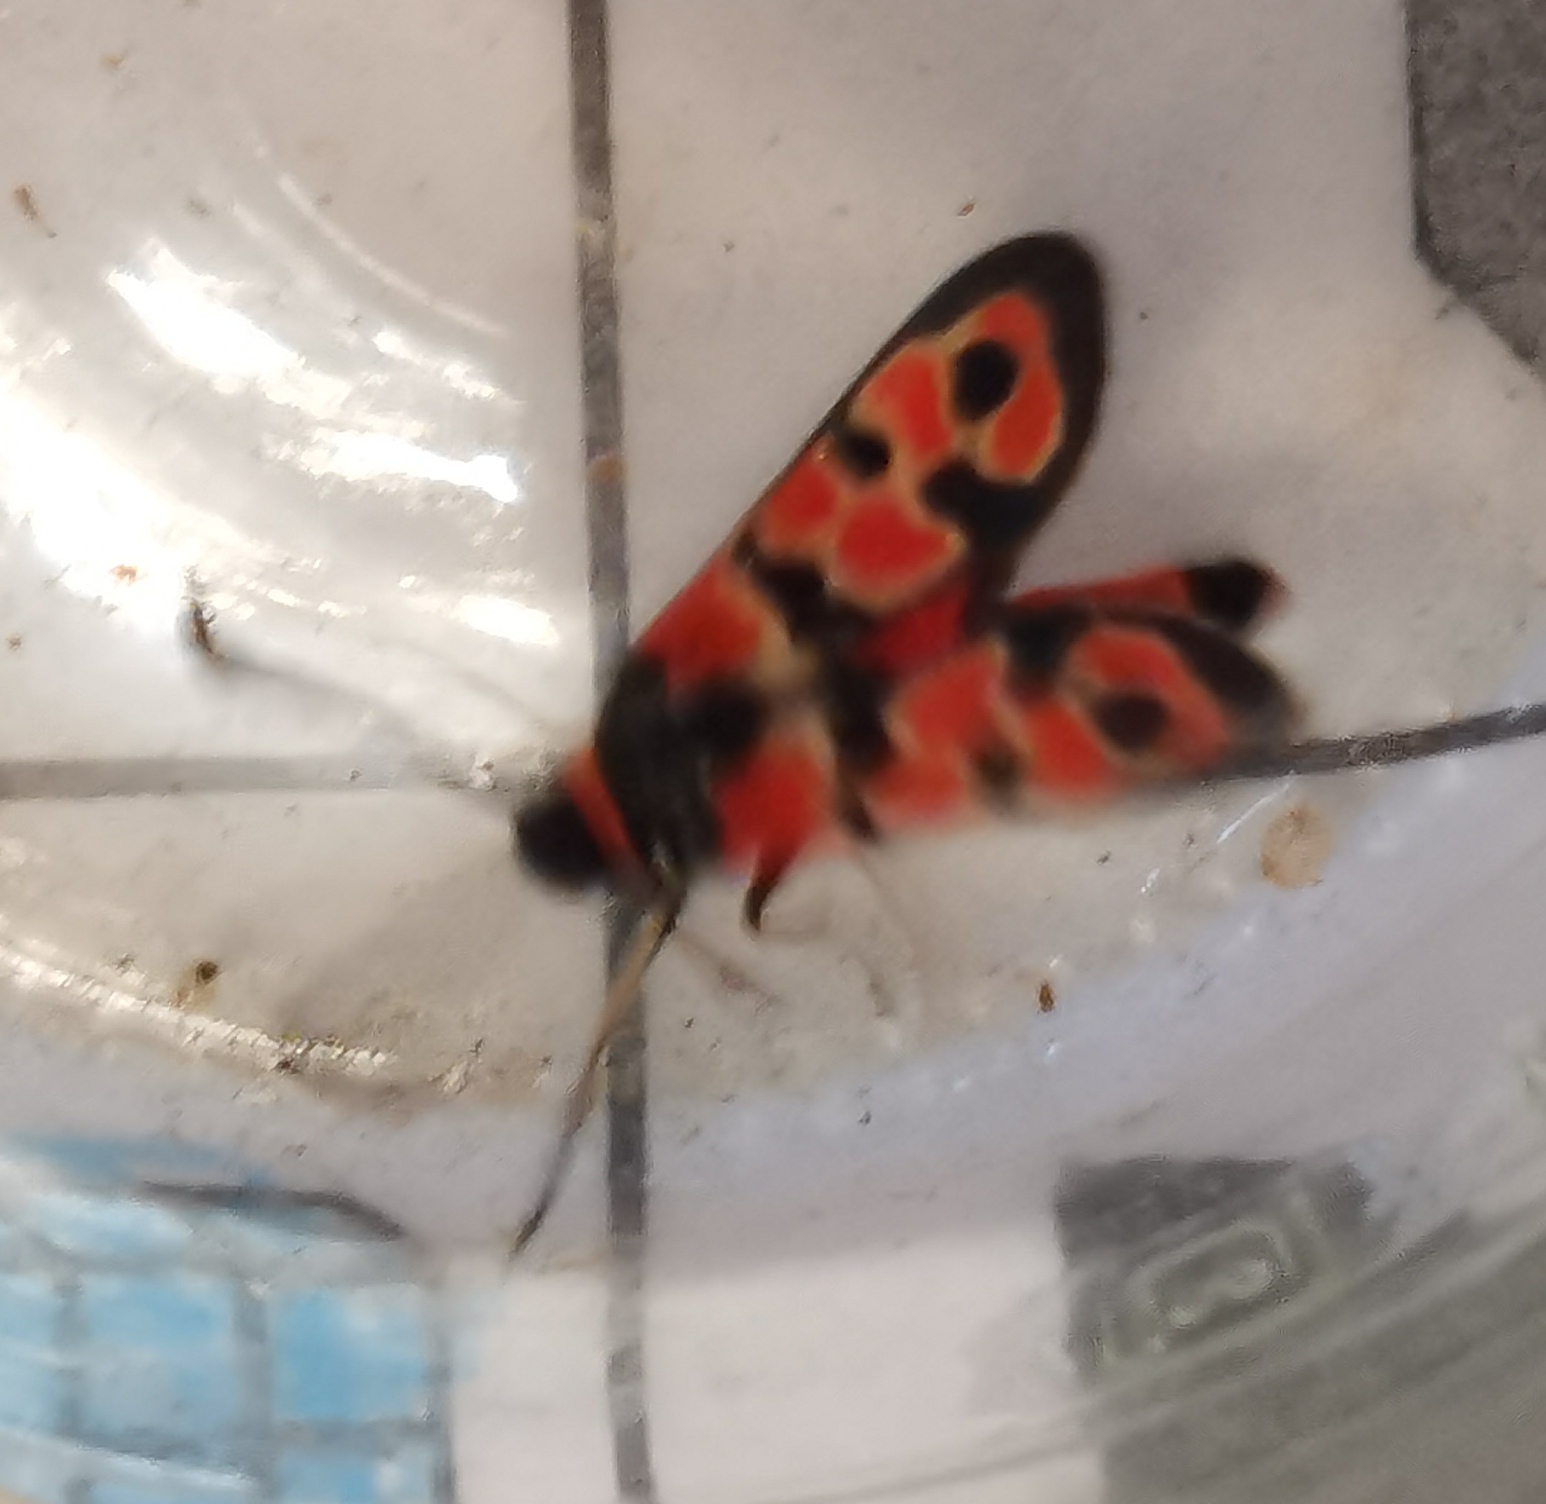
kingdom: Animalia
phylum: Arthropoda
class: Insecta
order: Lepidoptera
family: Zygaenidae
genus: Zygaena
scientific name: Zygaena fausta
